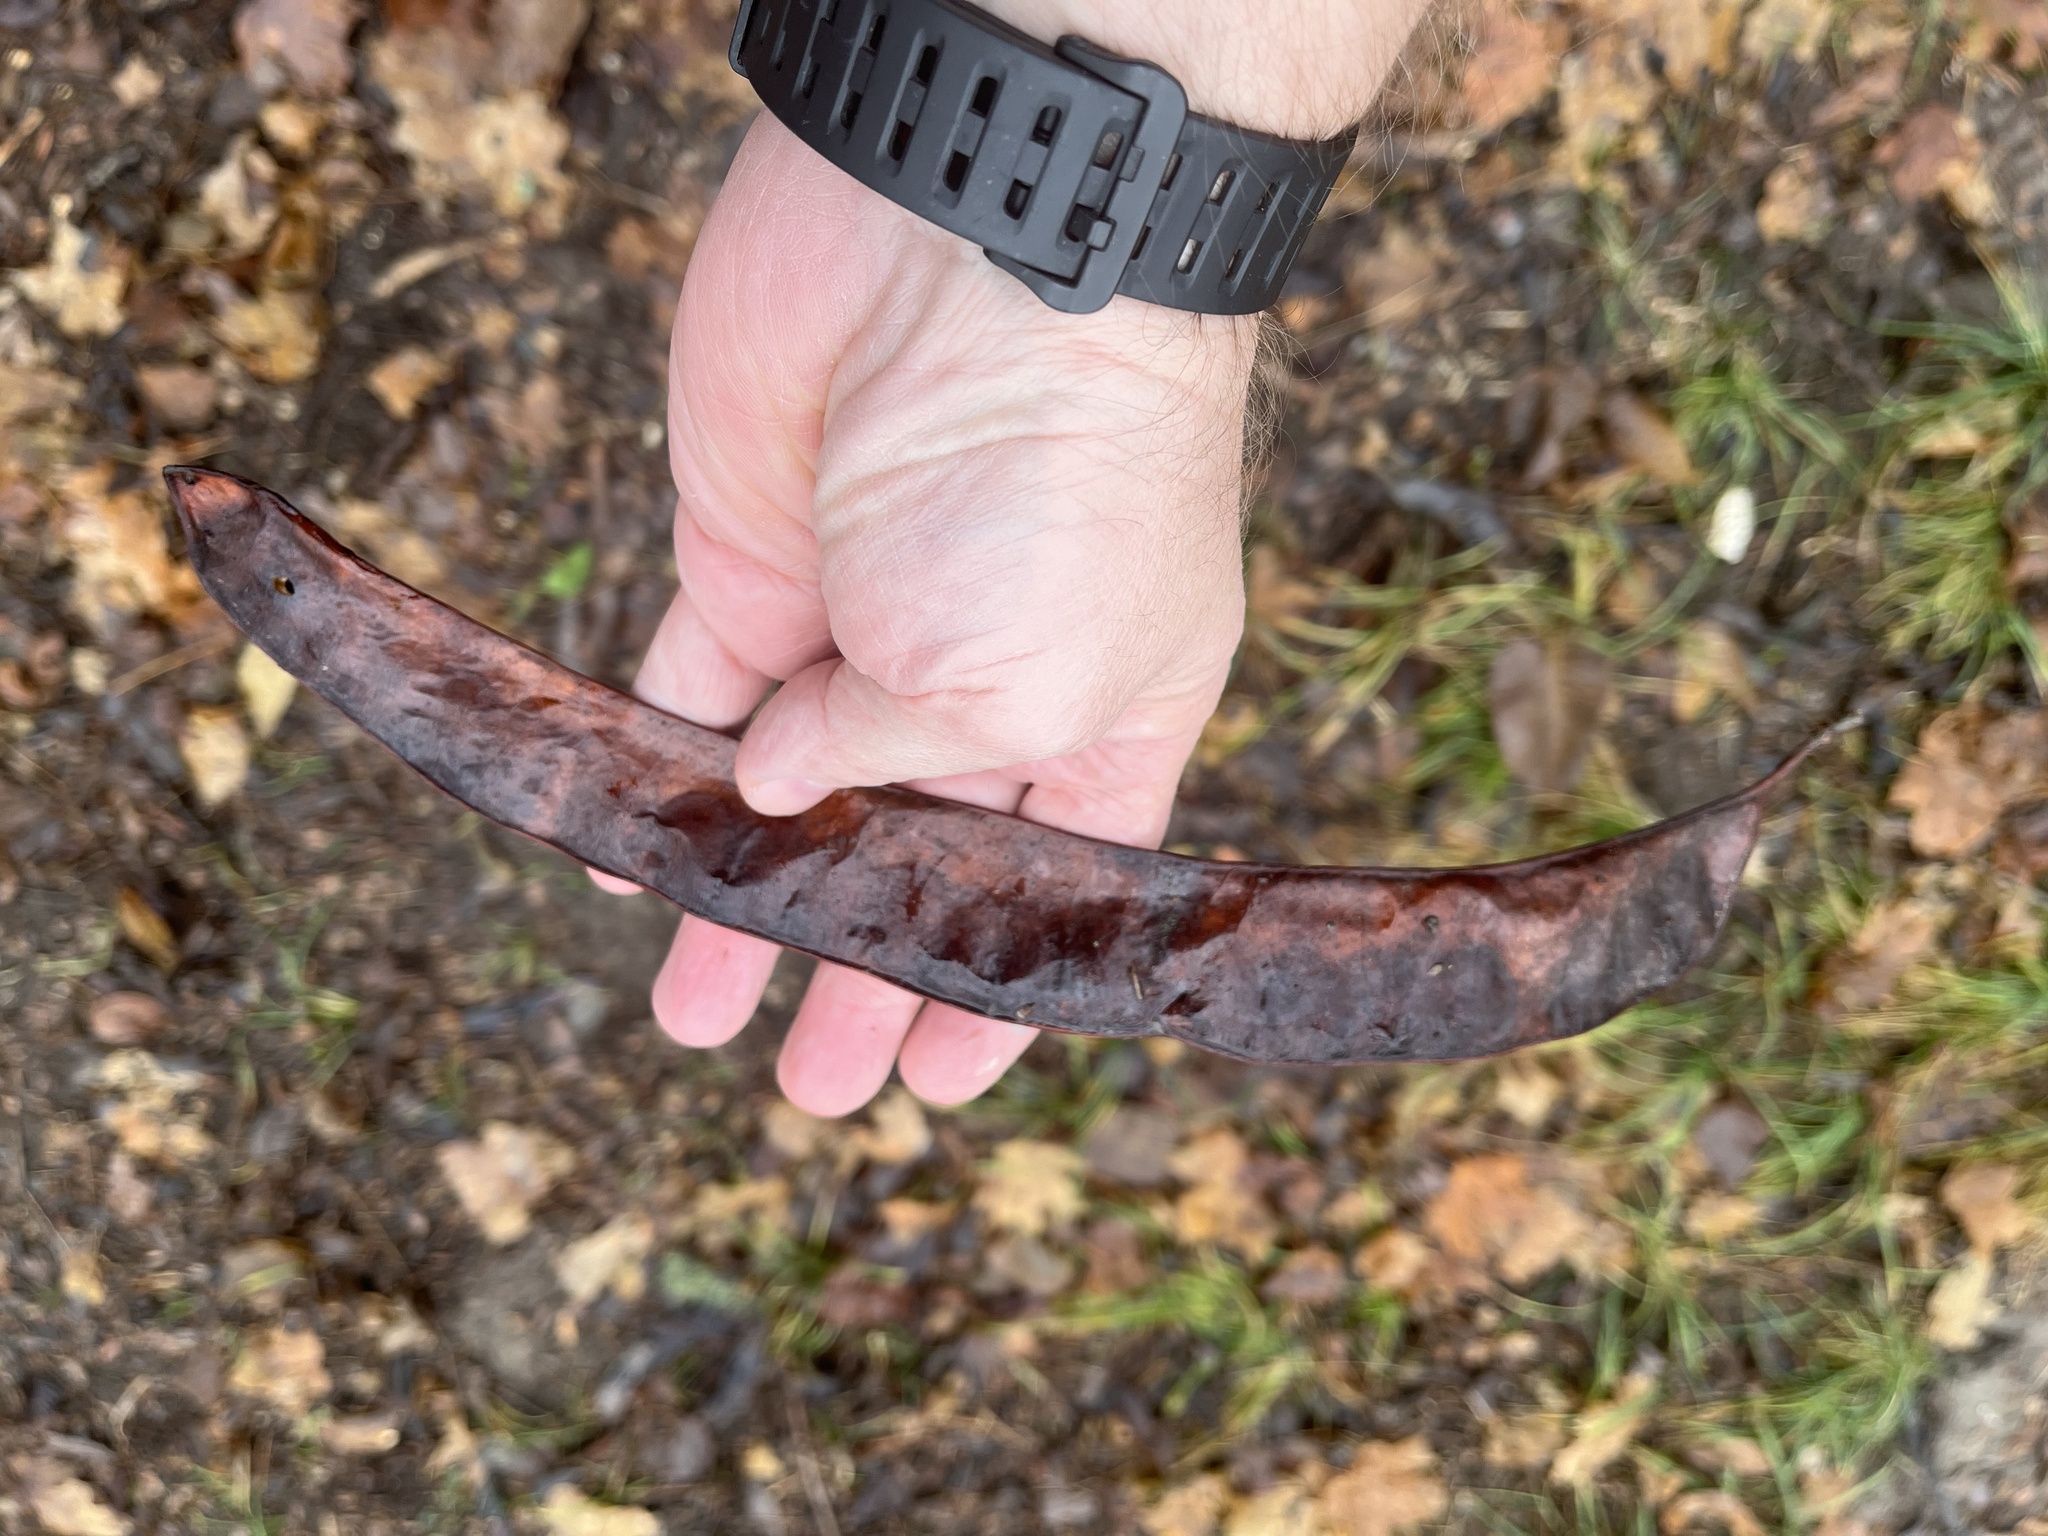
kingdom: Plantae
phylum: Tracheophyta
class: Magnoliopsida
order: Fabales
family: Fabaceae
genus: Gleditsia
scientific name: Gleditsia triacanthos
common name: Common honeylocust
